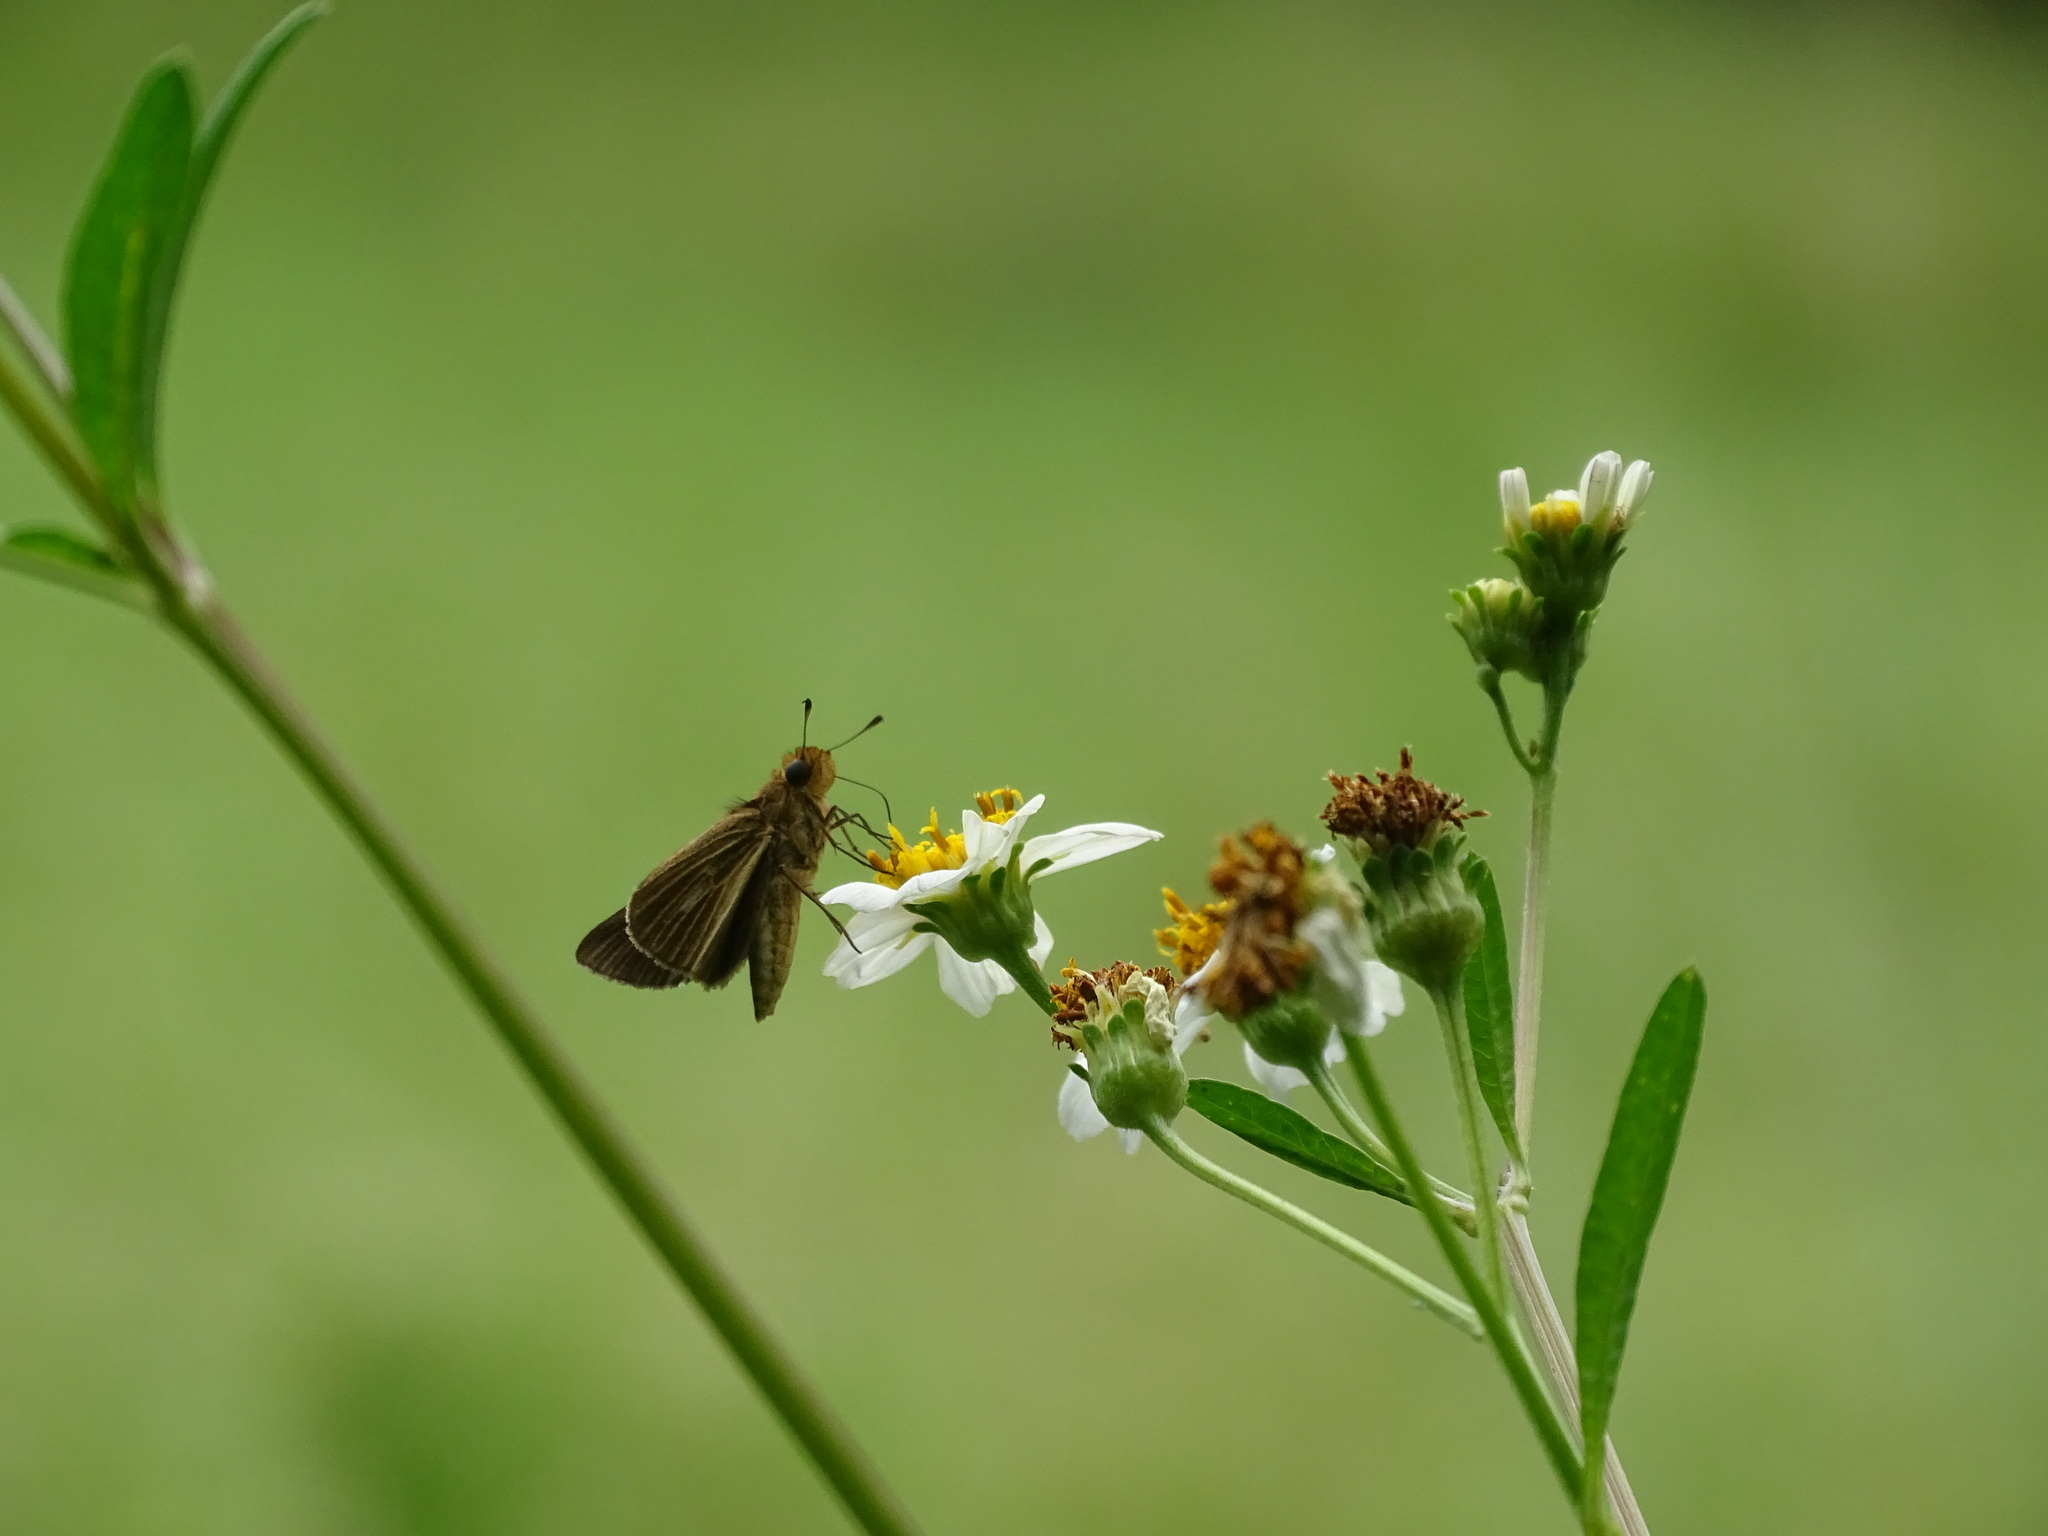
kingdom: Animalia
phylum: Arthropoda
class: Insecta
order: Lepidoptera
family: Hesperiidae
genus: Panoquina
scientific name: Panoquina panoquin
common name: Salt marsh skipper
